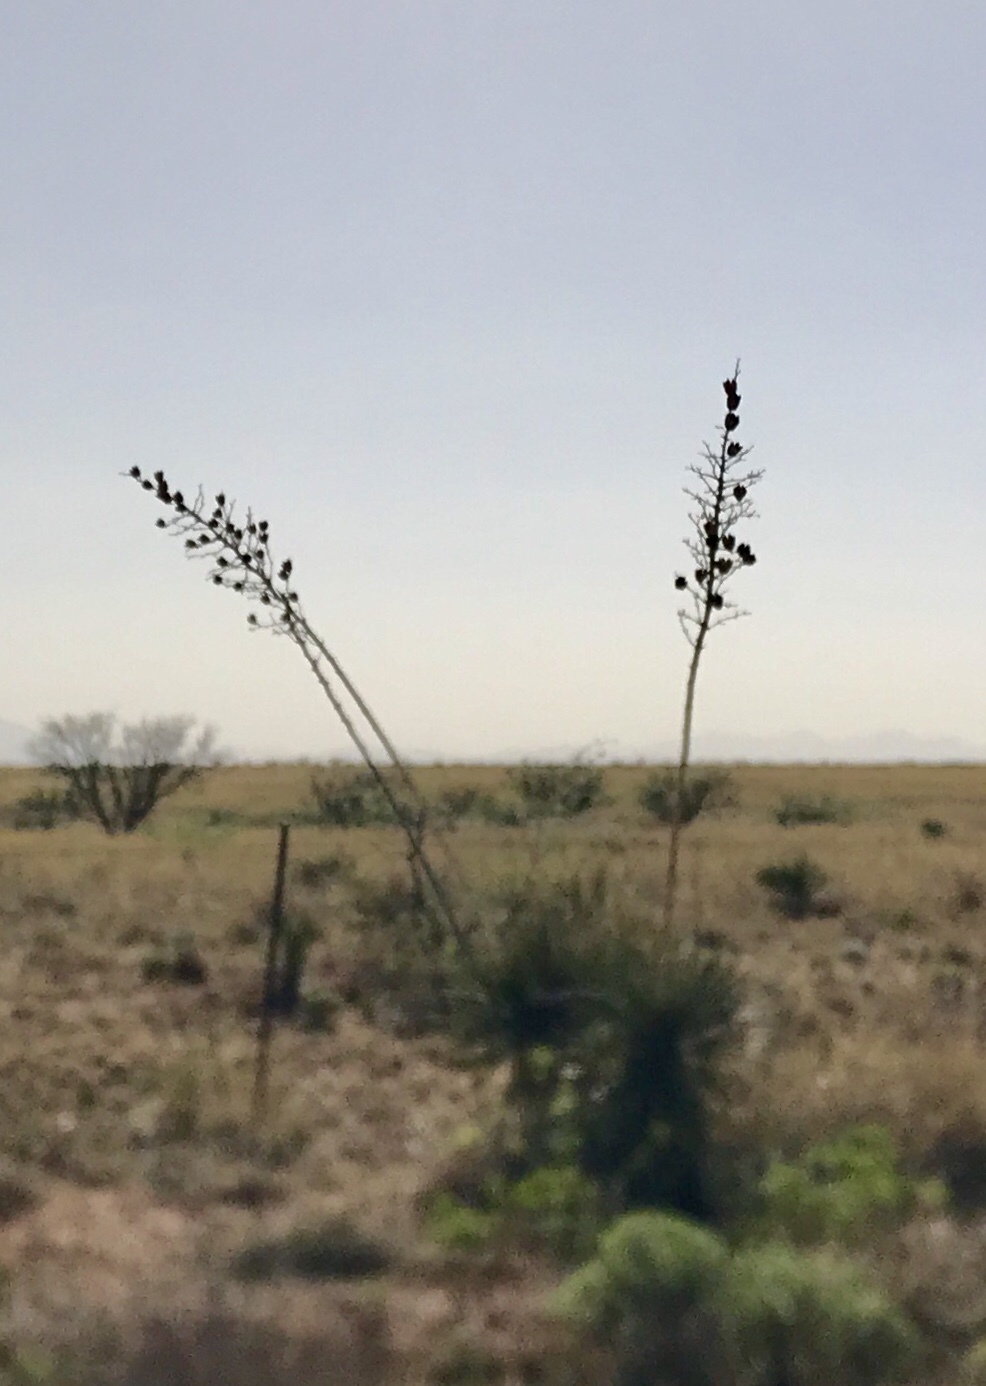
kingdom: Plantae
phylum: Tracheophyta
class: Liliopsida
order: Asparagales
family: Asparagaceae
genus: Yucca
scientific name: Yucca elata
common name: Palmella
